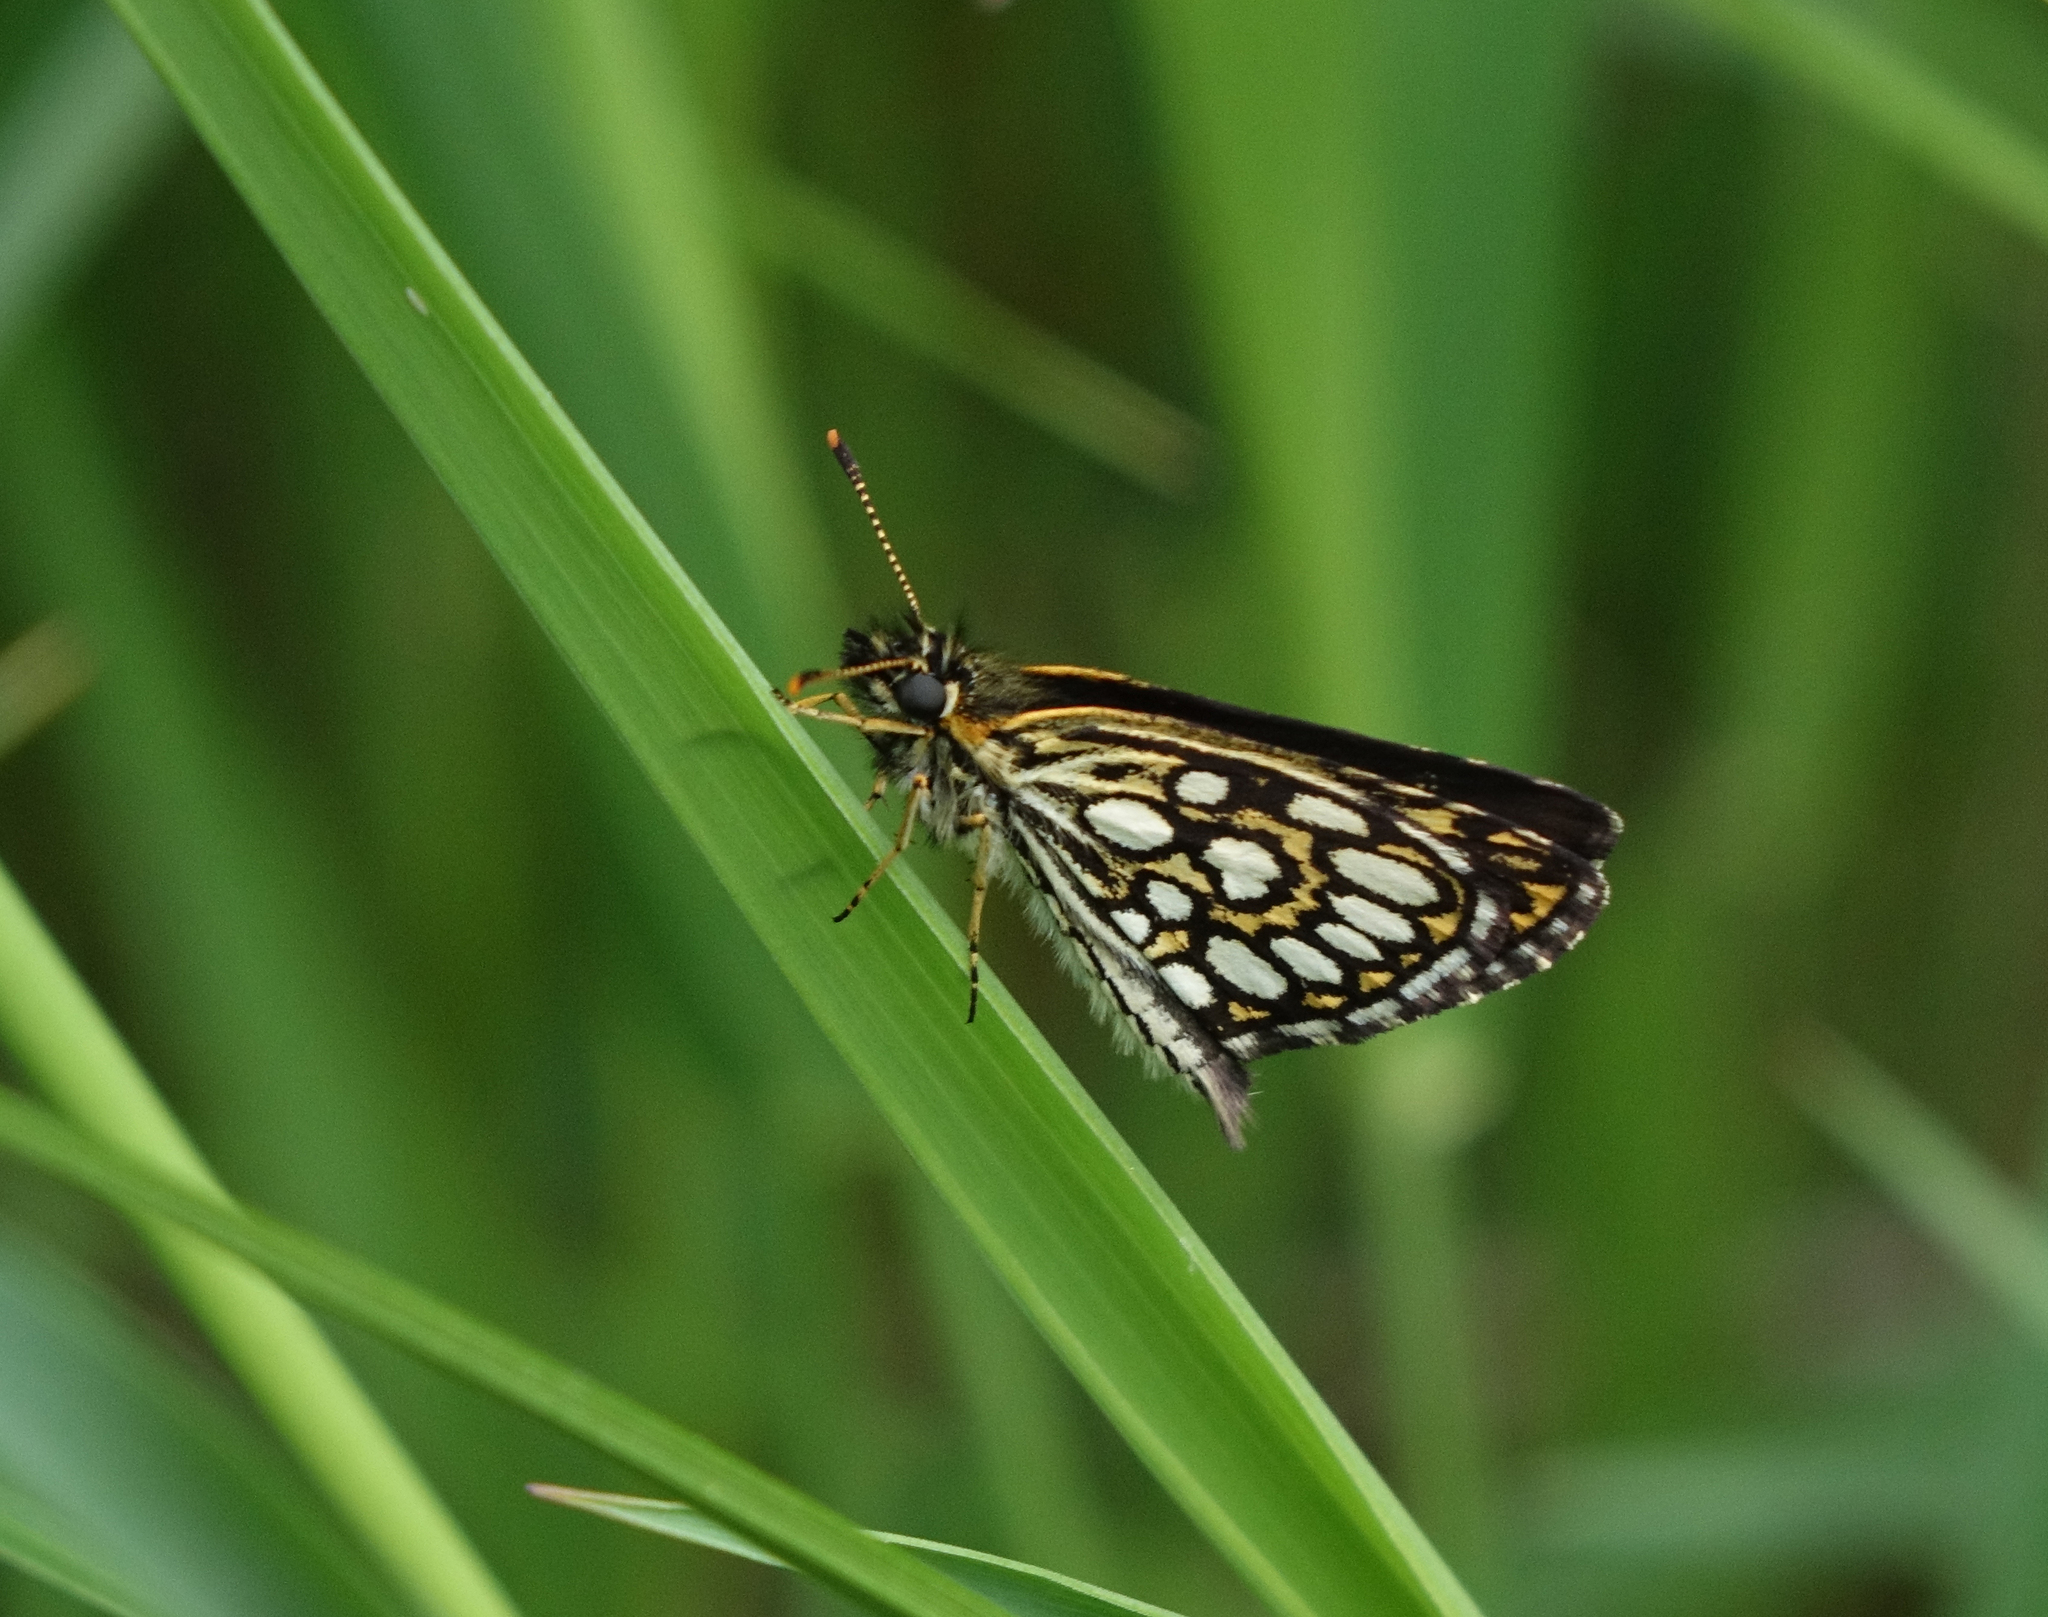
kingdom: Animalia
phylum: Arthropoda
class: Insecta
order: Lepidoptera
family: Hesperiidae
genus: Heteropterus
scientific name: Heteropterus morpheus
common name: Large chequered skipper
